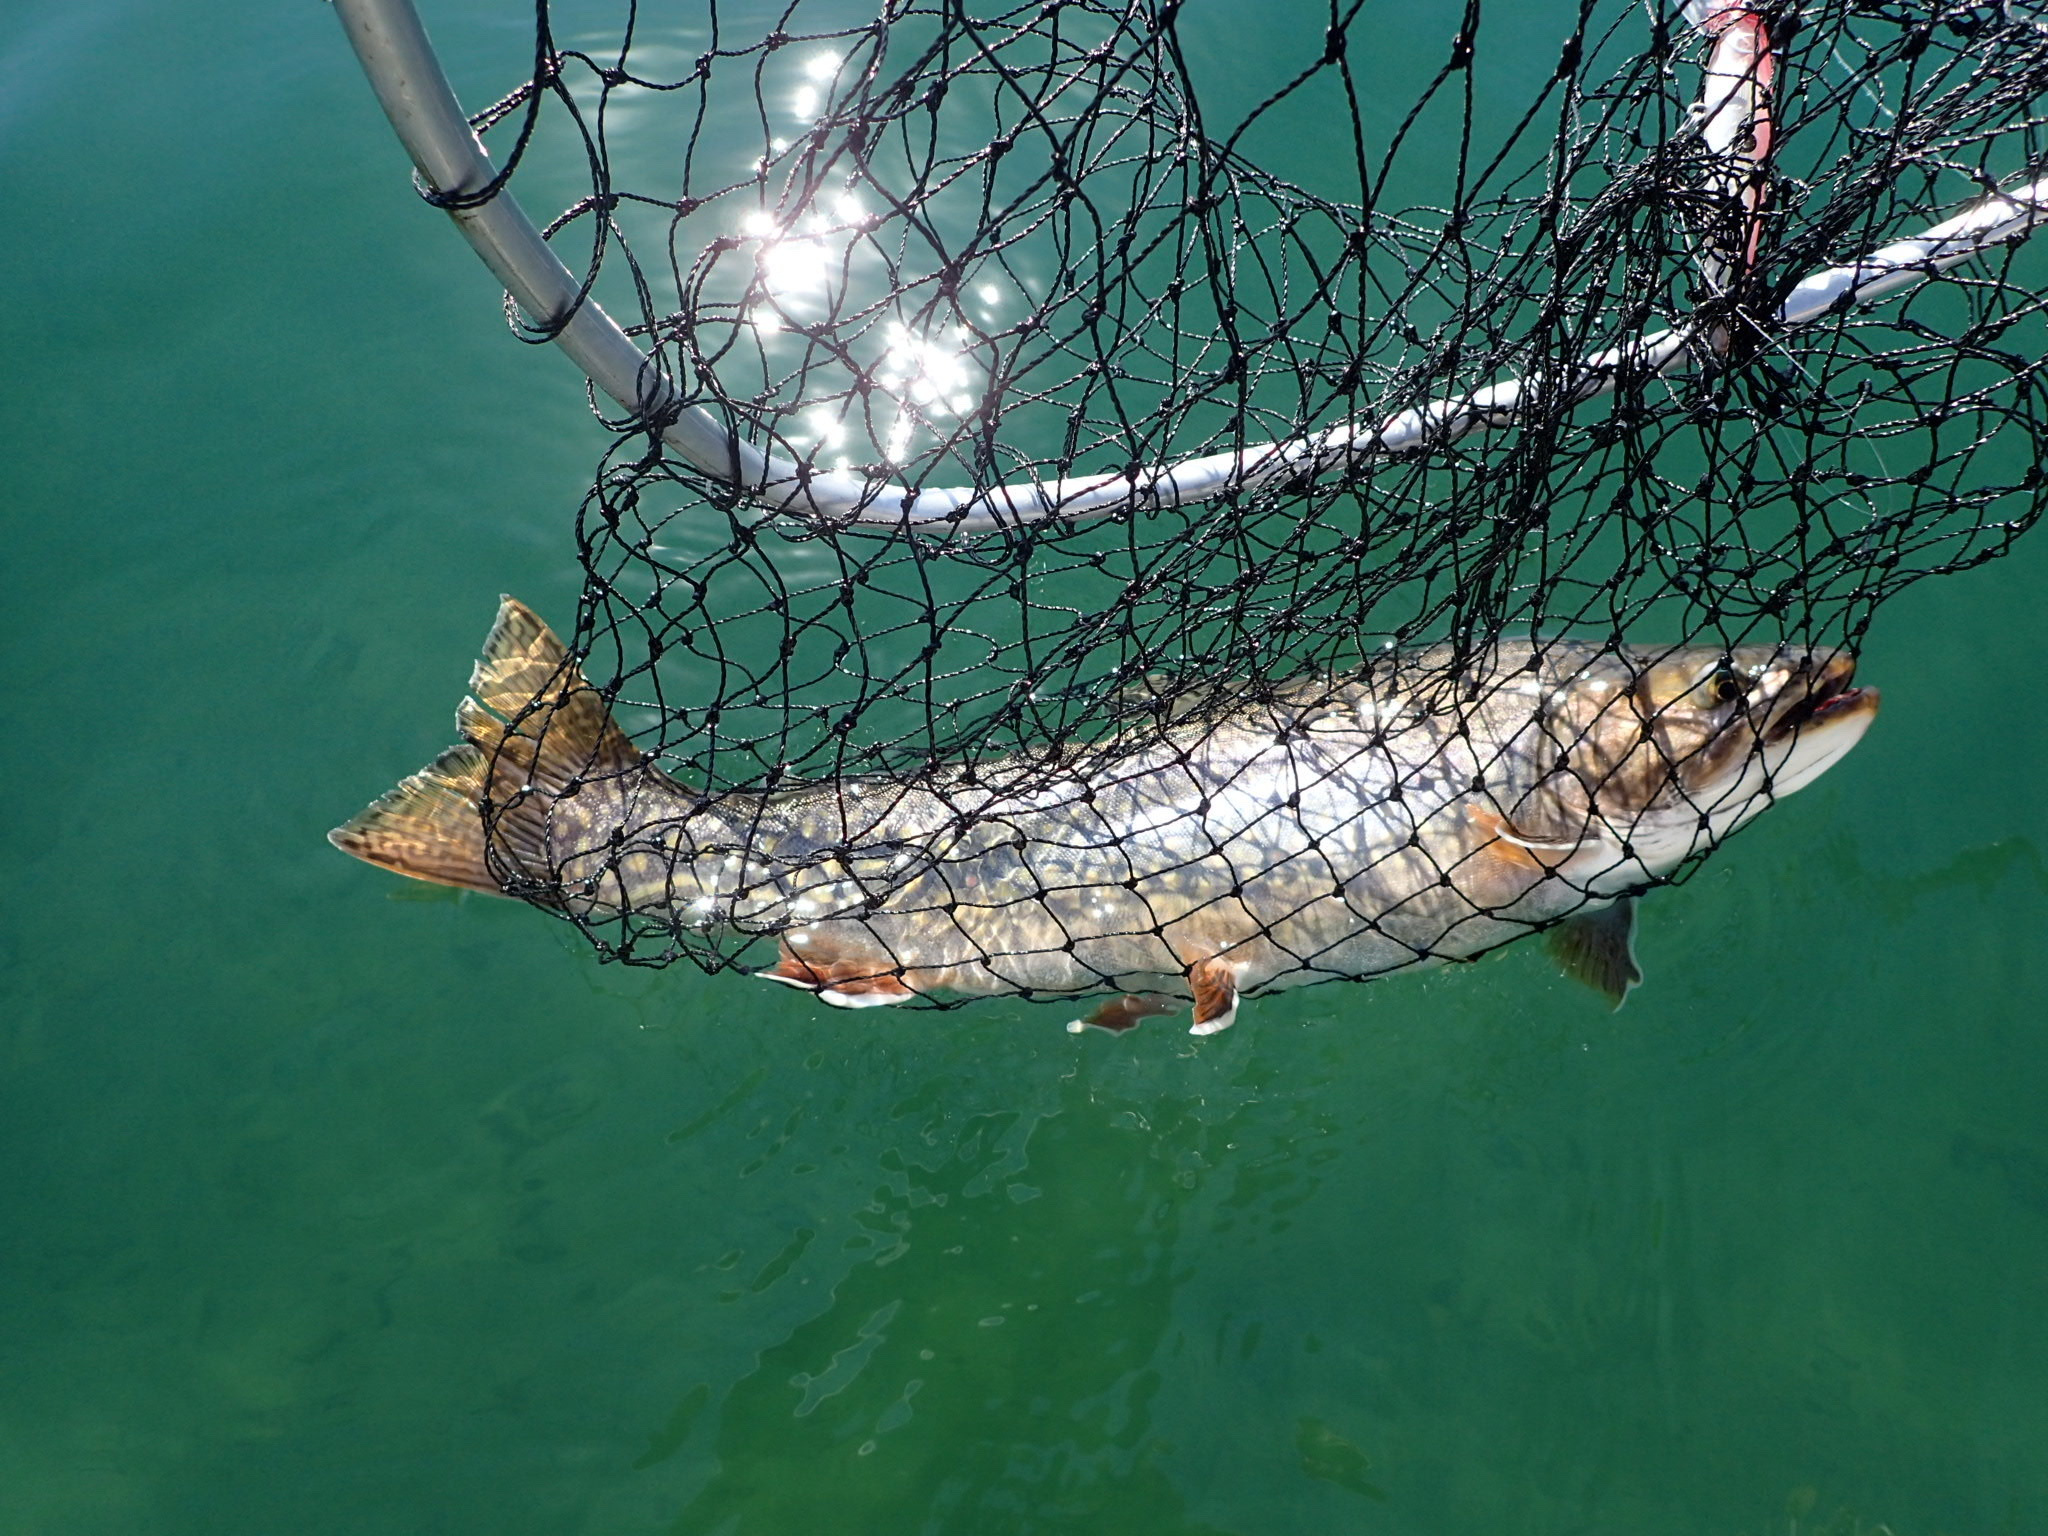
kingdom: Animalia
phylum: Chordata
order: Salmoniformes
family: Salmonidae
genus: Salvelinus
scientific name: Salvelinus fontinalis
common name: Brook trout
